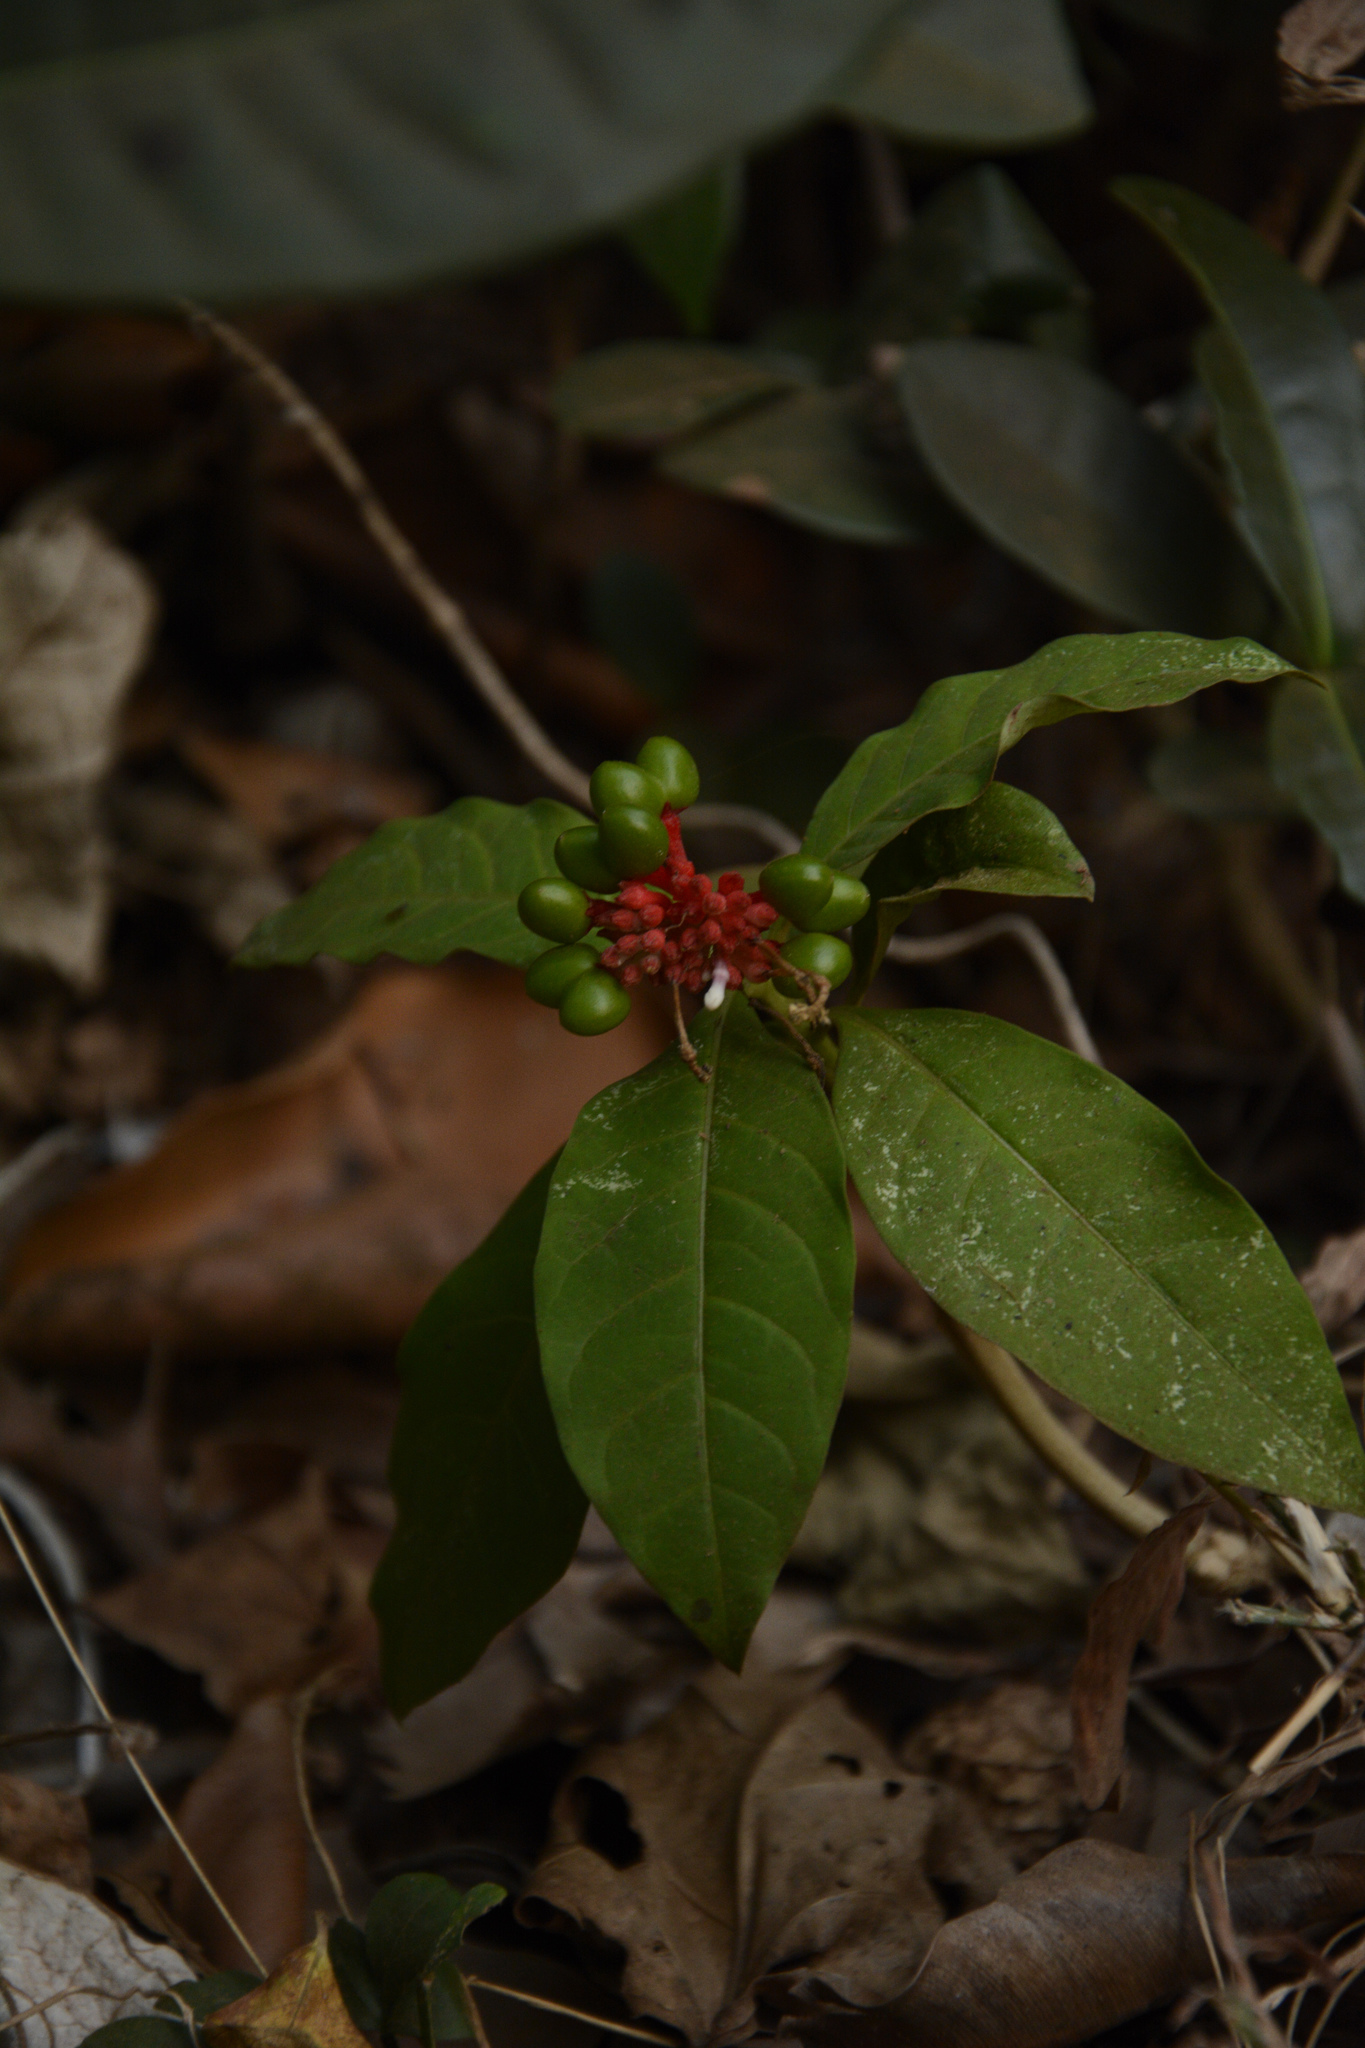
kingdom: Plantae
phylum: Tracheophyta
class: Magnoliopsida
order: Gentianales
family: Apocynaceae
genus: Rauvolfia
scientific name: Rauvolfia serpentina
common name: Ajmaline
